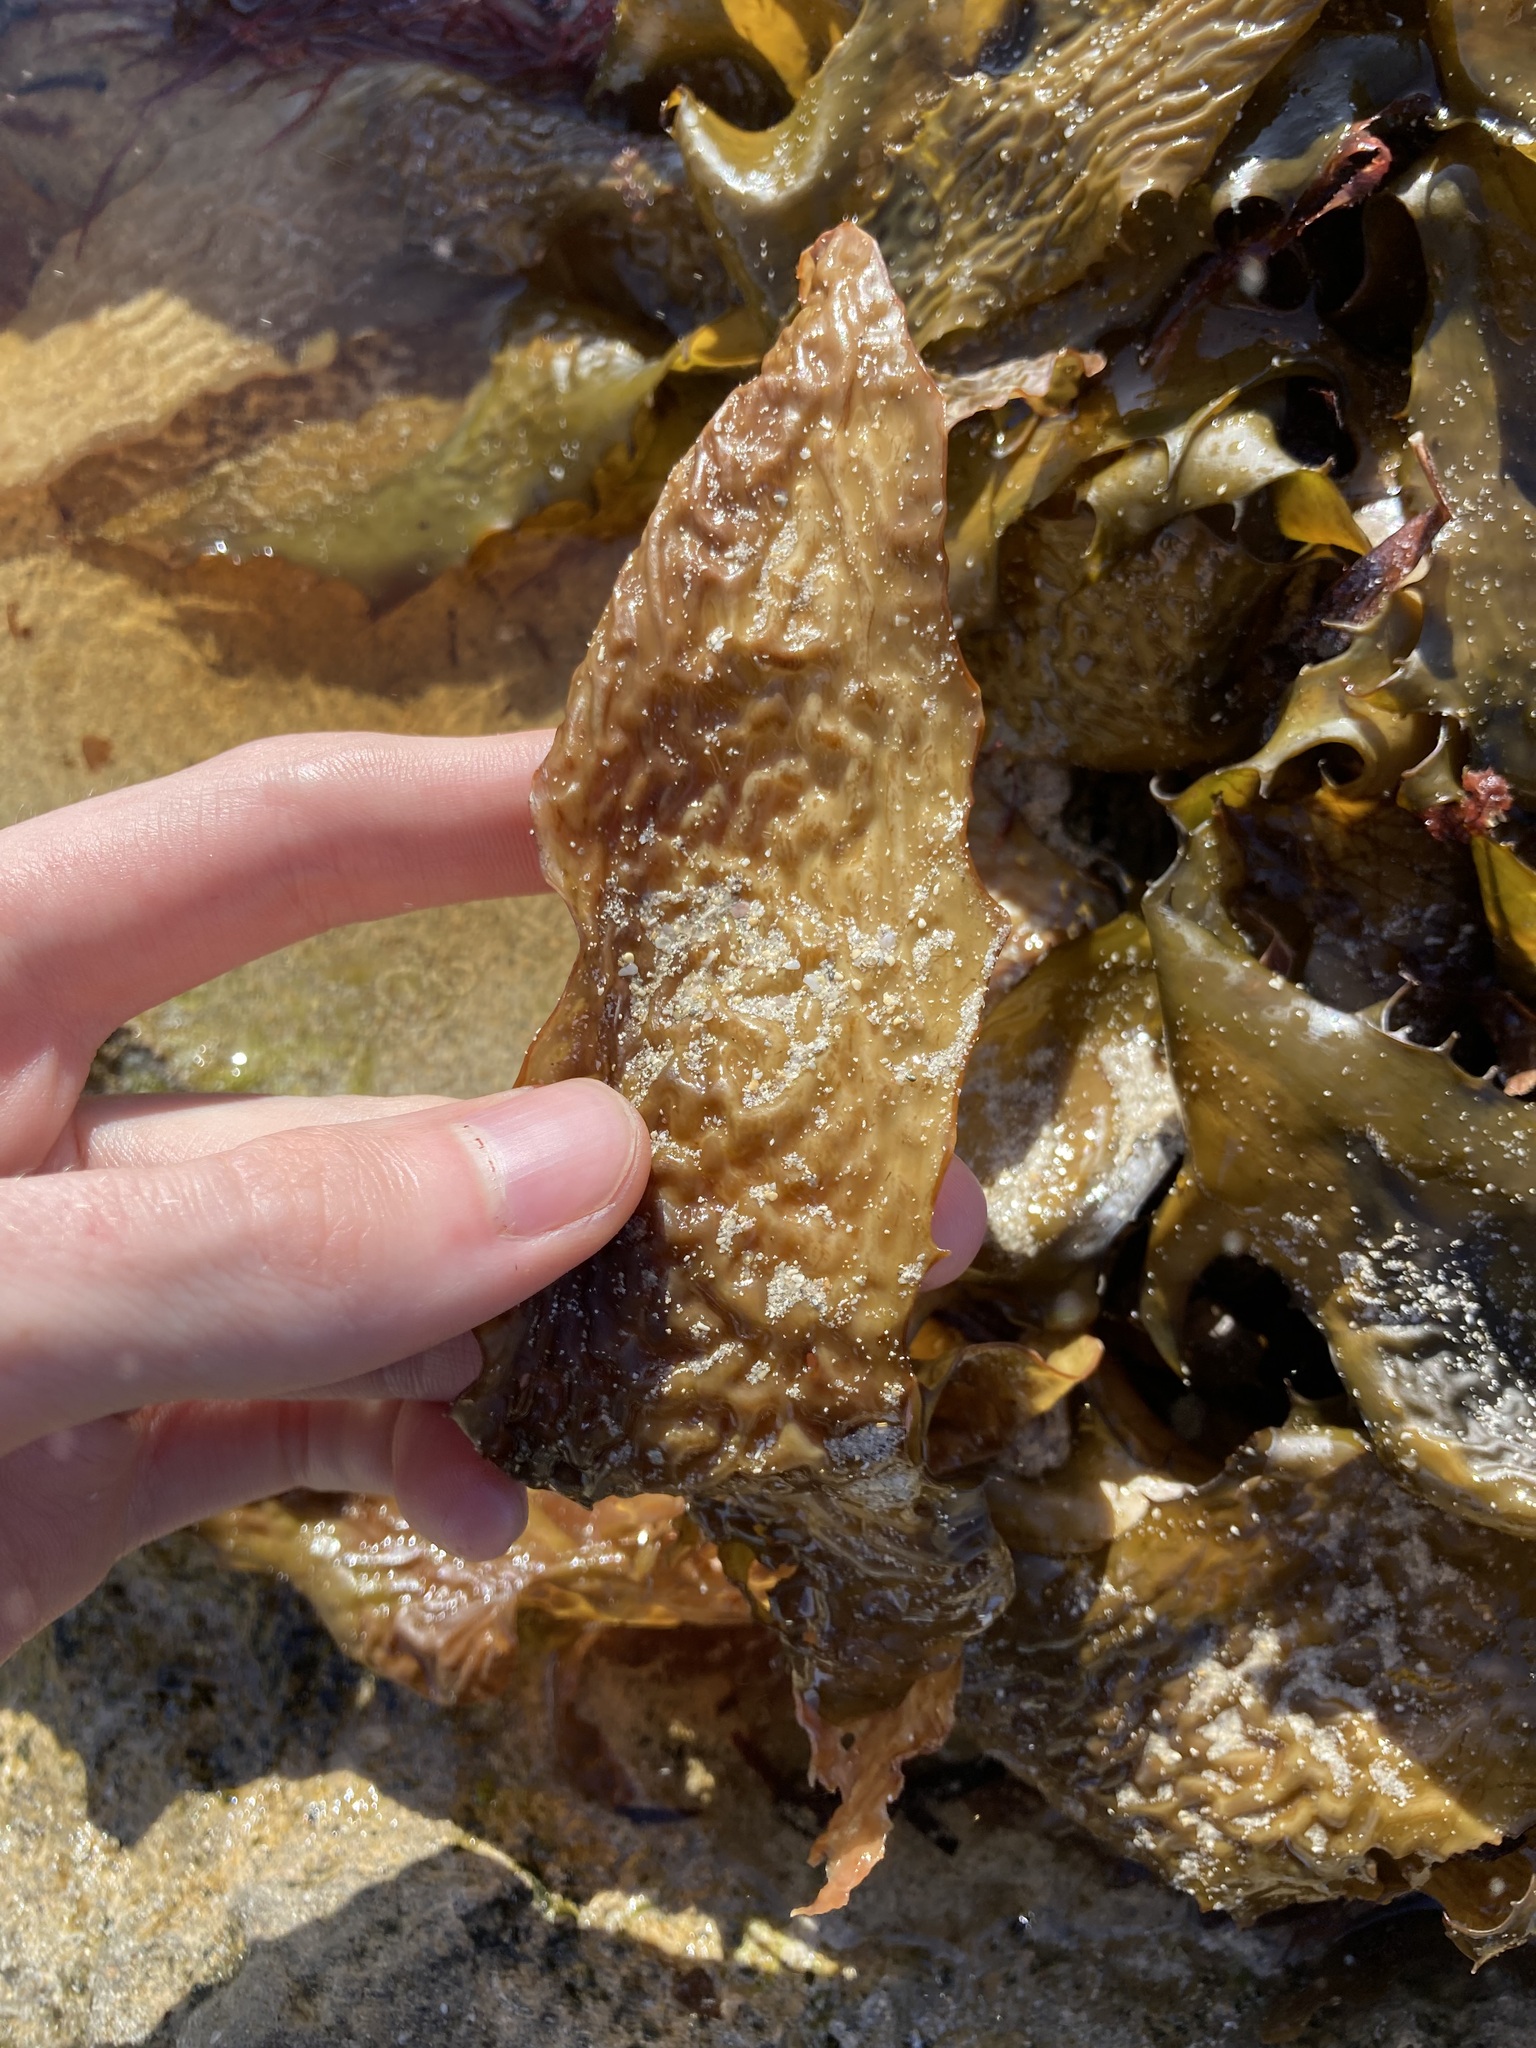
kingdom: Chromista
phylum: Ochrophyta
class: Phaeophyceae
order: Laminariales
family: Lessoniaceae
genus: Ecklonia
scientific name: Ecklonia radiata
